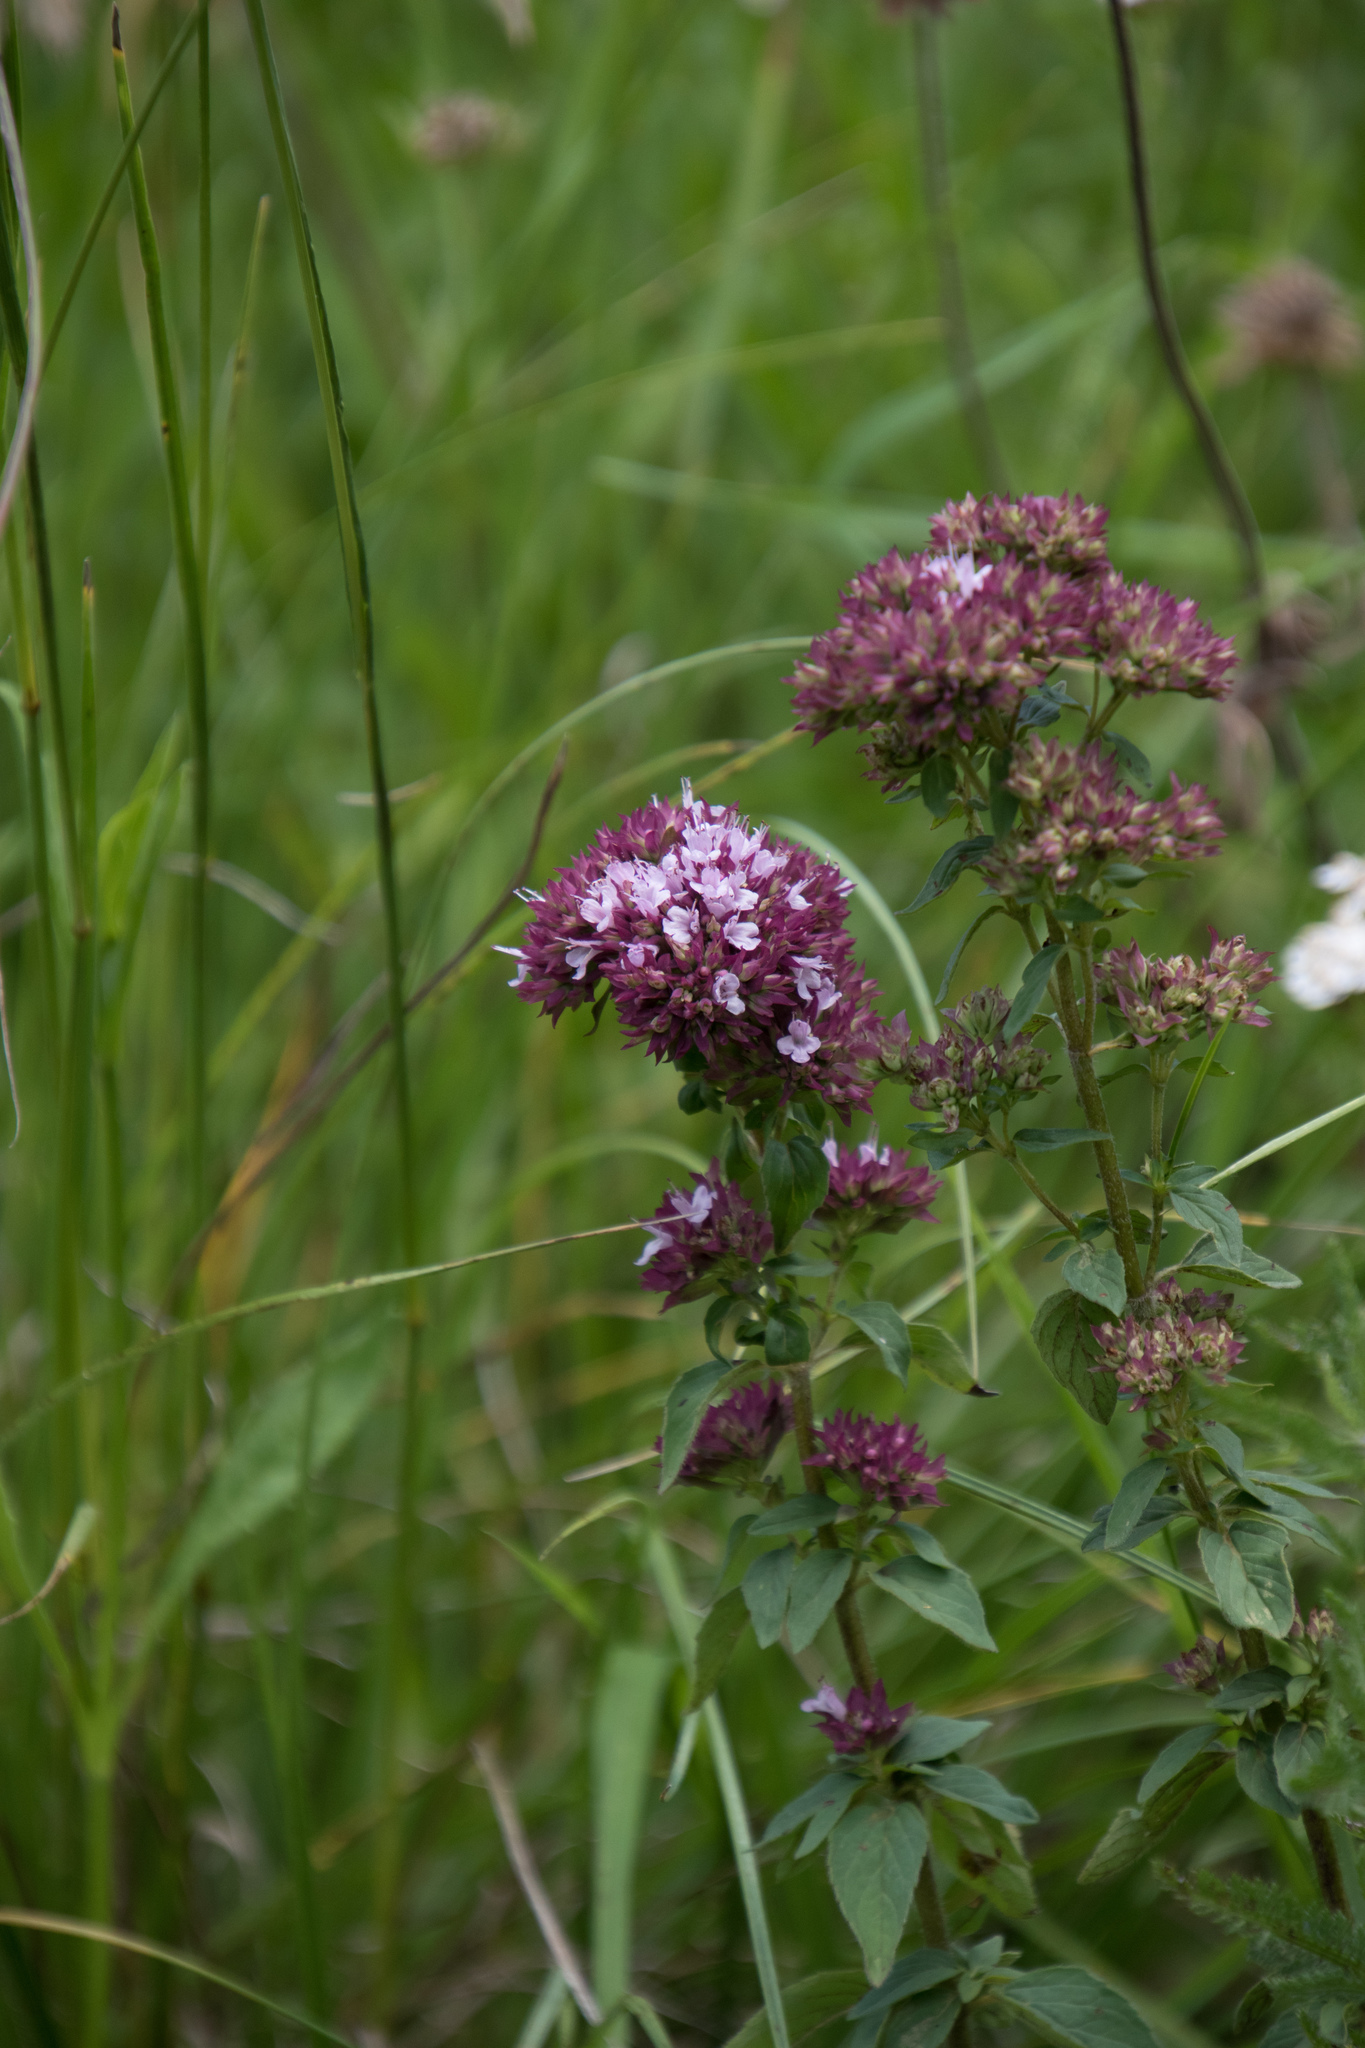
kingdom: Plantae
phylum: Tracheophyta
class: Magnoliopsida
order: Lamiales
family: Lamiaceae
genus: Origanum
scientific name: Origanum vulgare
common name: Wild marjoram
